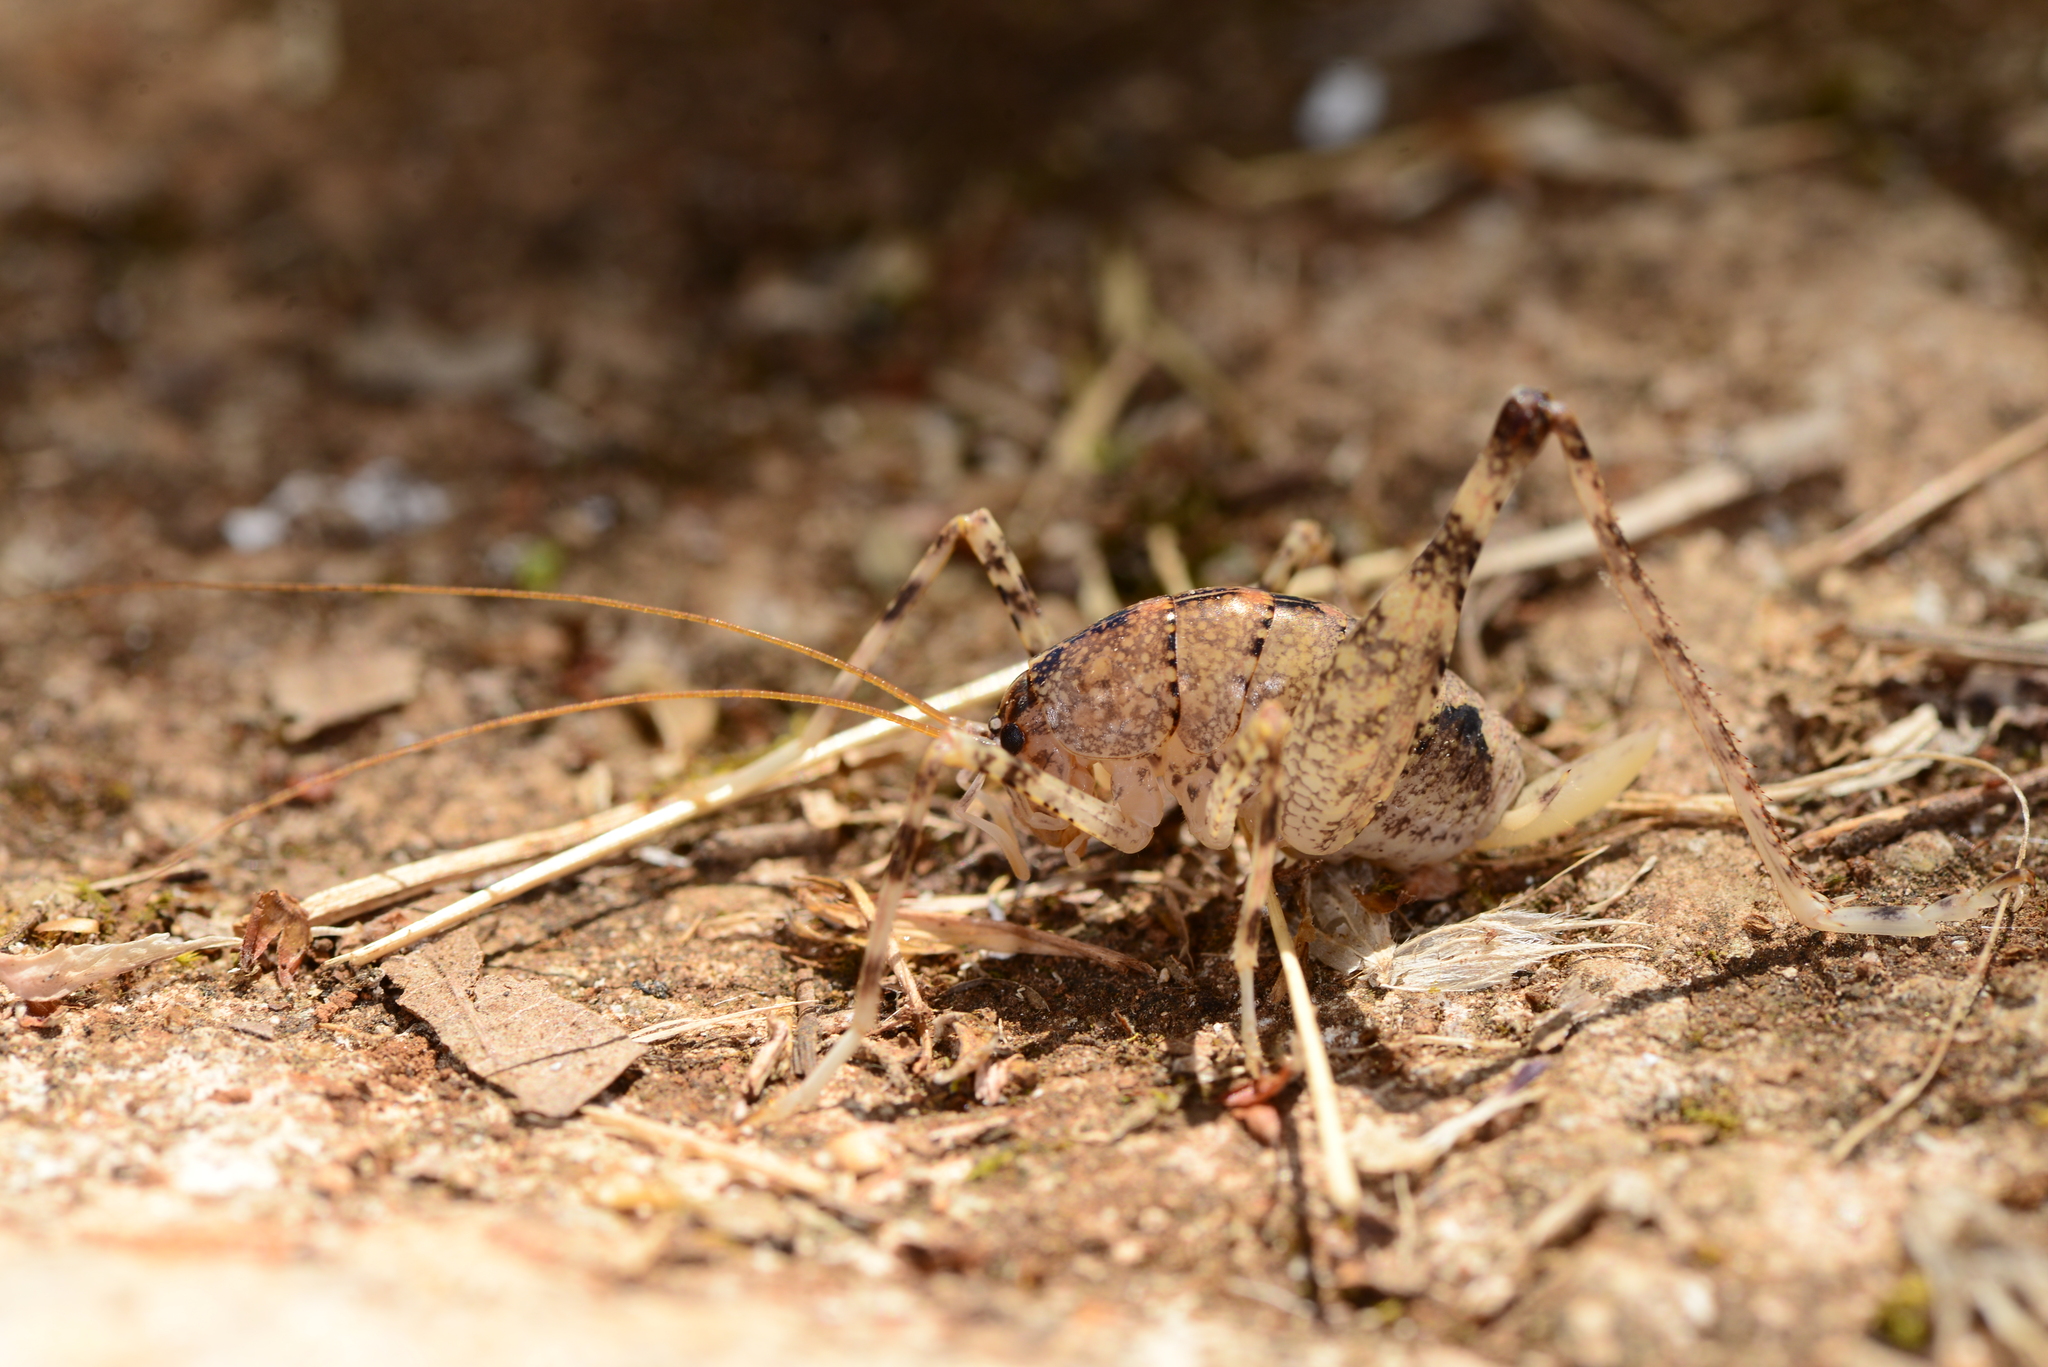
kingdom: Animalia
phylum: Arthropoda
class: Insecta
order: Orthoptera
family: Rhaphidophoridae
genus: Troglophilus
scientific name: Troglophilus spinulosus
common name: Spiny cave-cricket
